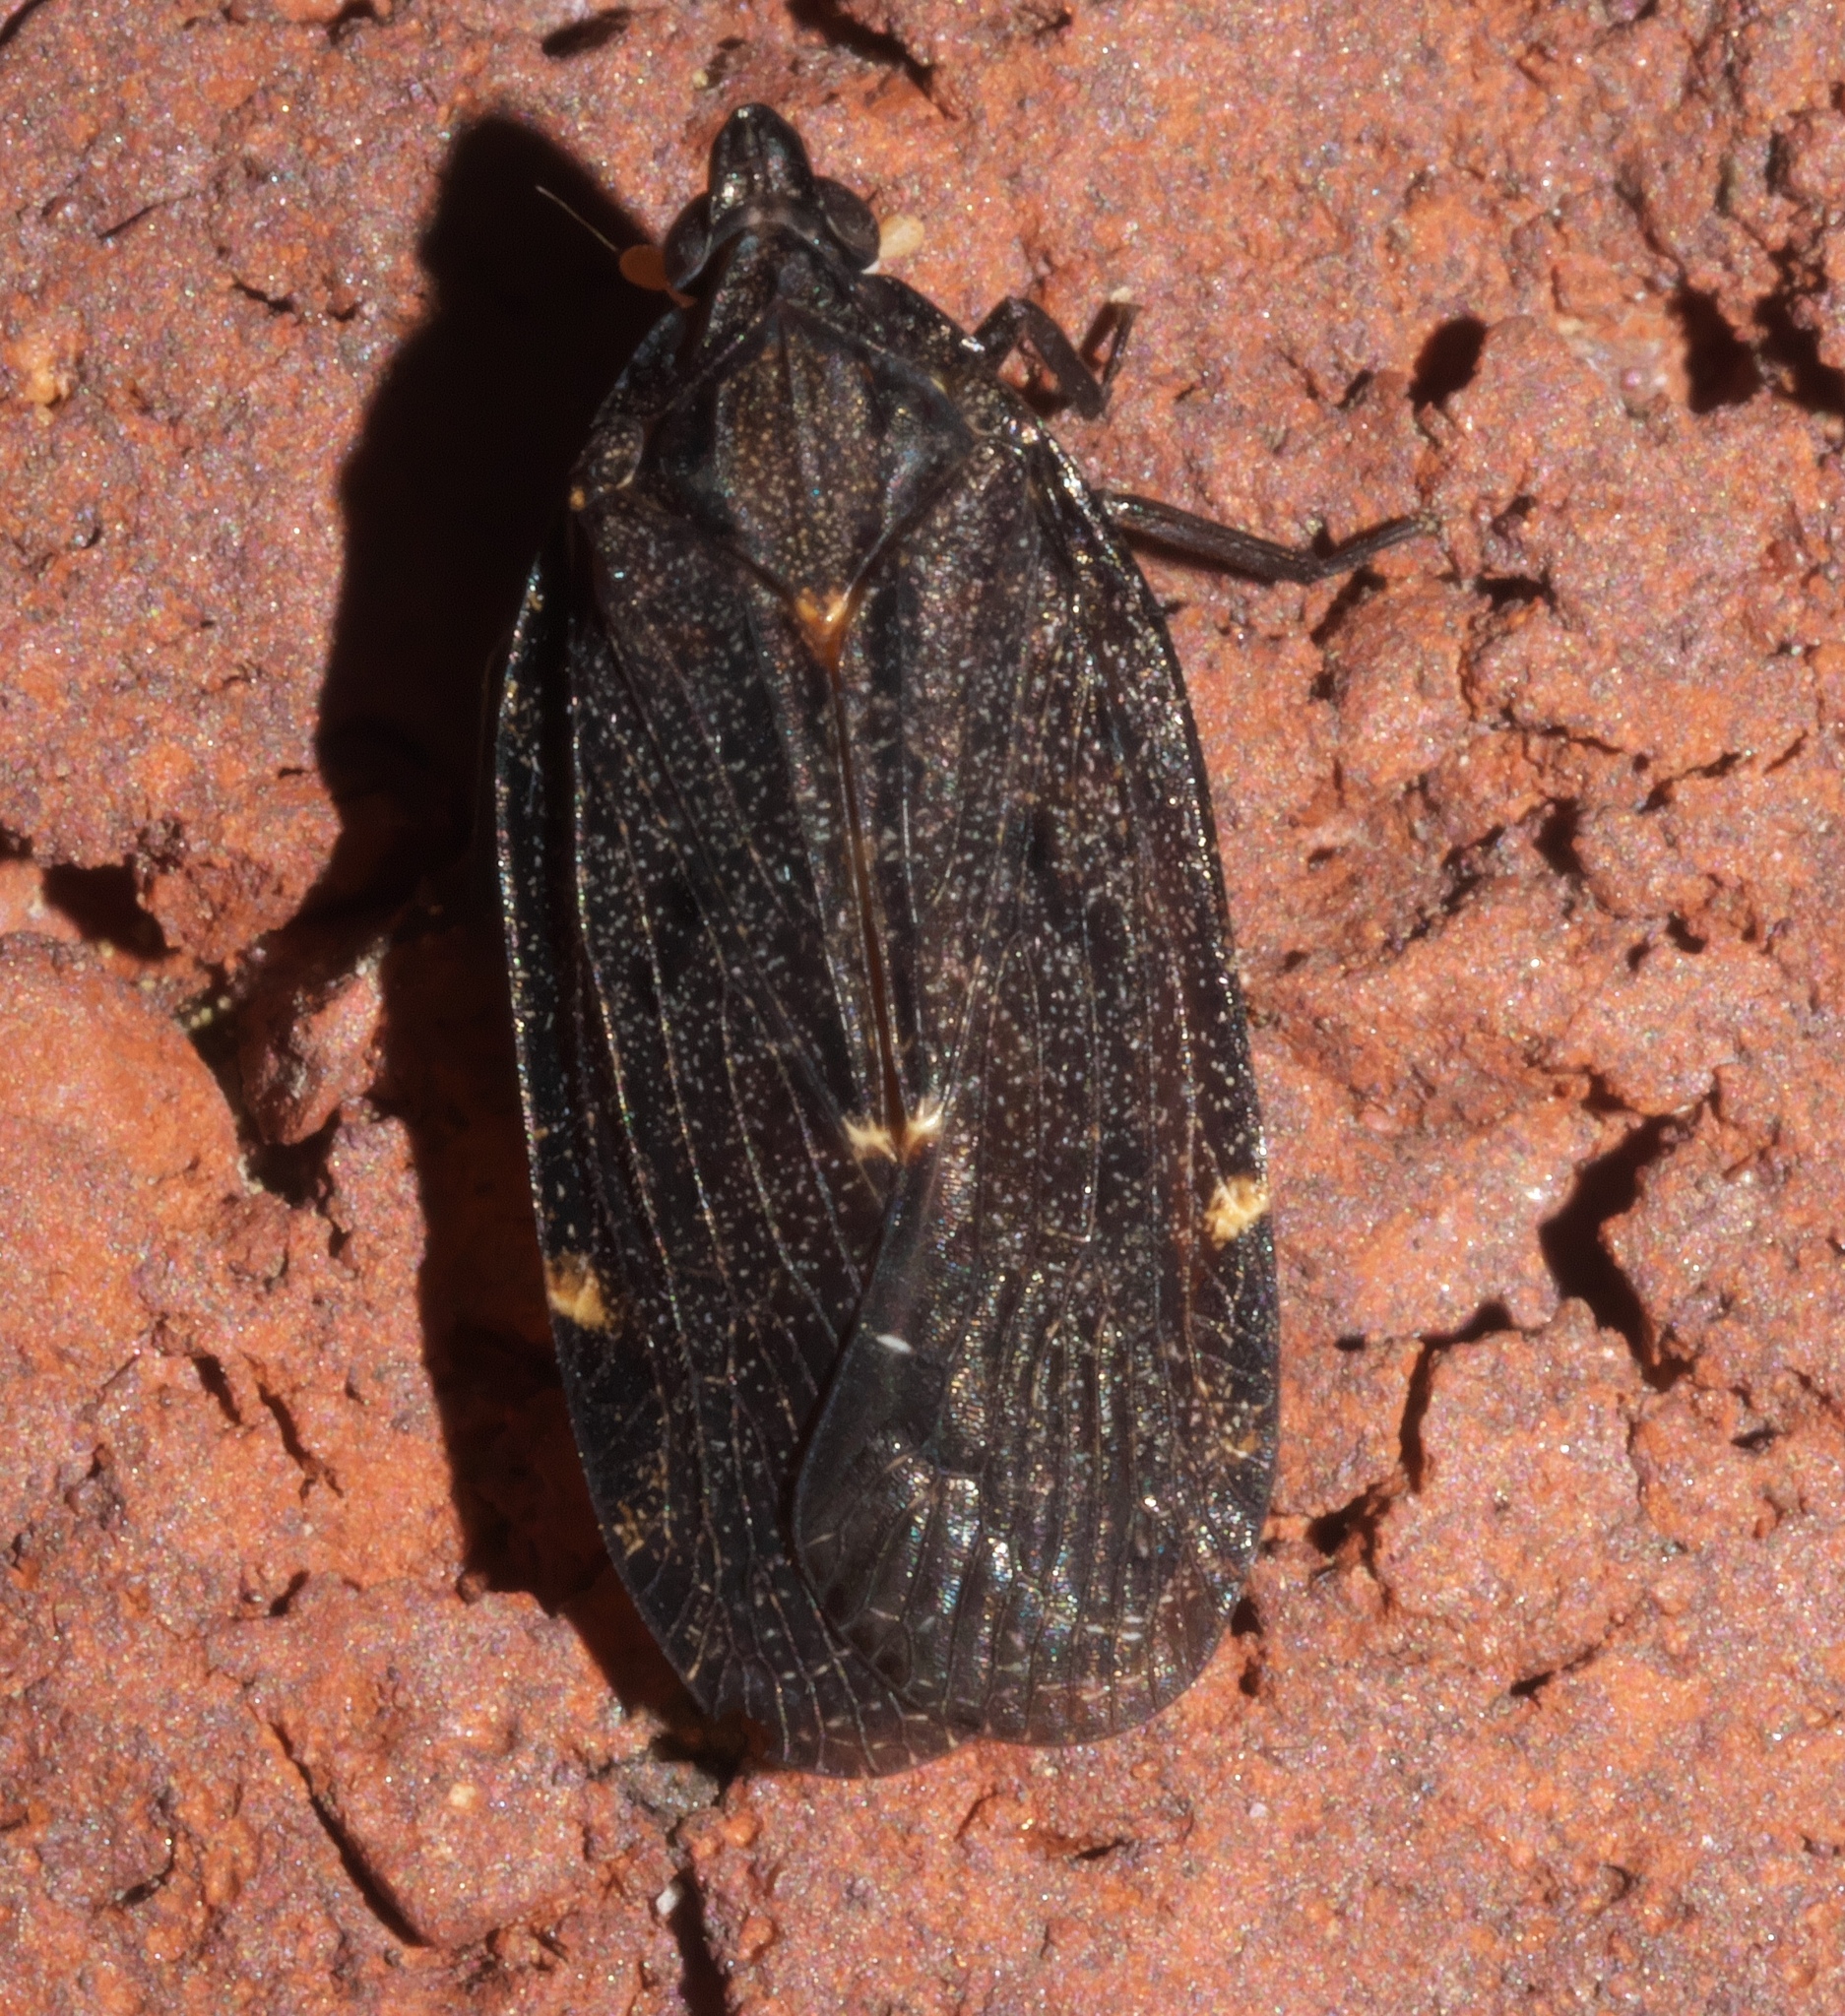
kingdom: Animalia
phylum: Arthropoda
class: Insecta
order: Hemiptera
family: Achilidae
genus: Cixidia
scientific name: Cixidia opaca
